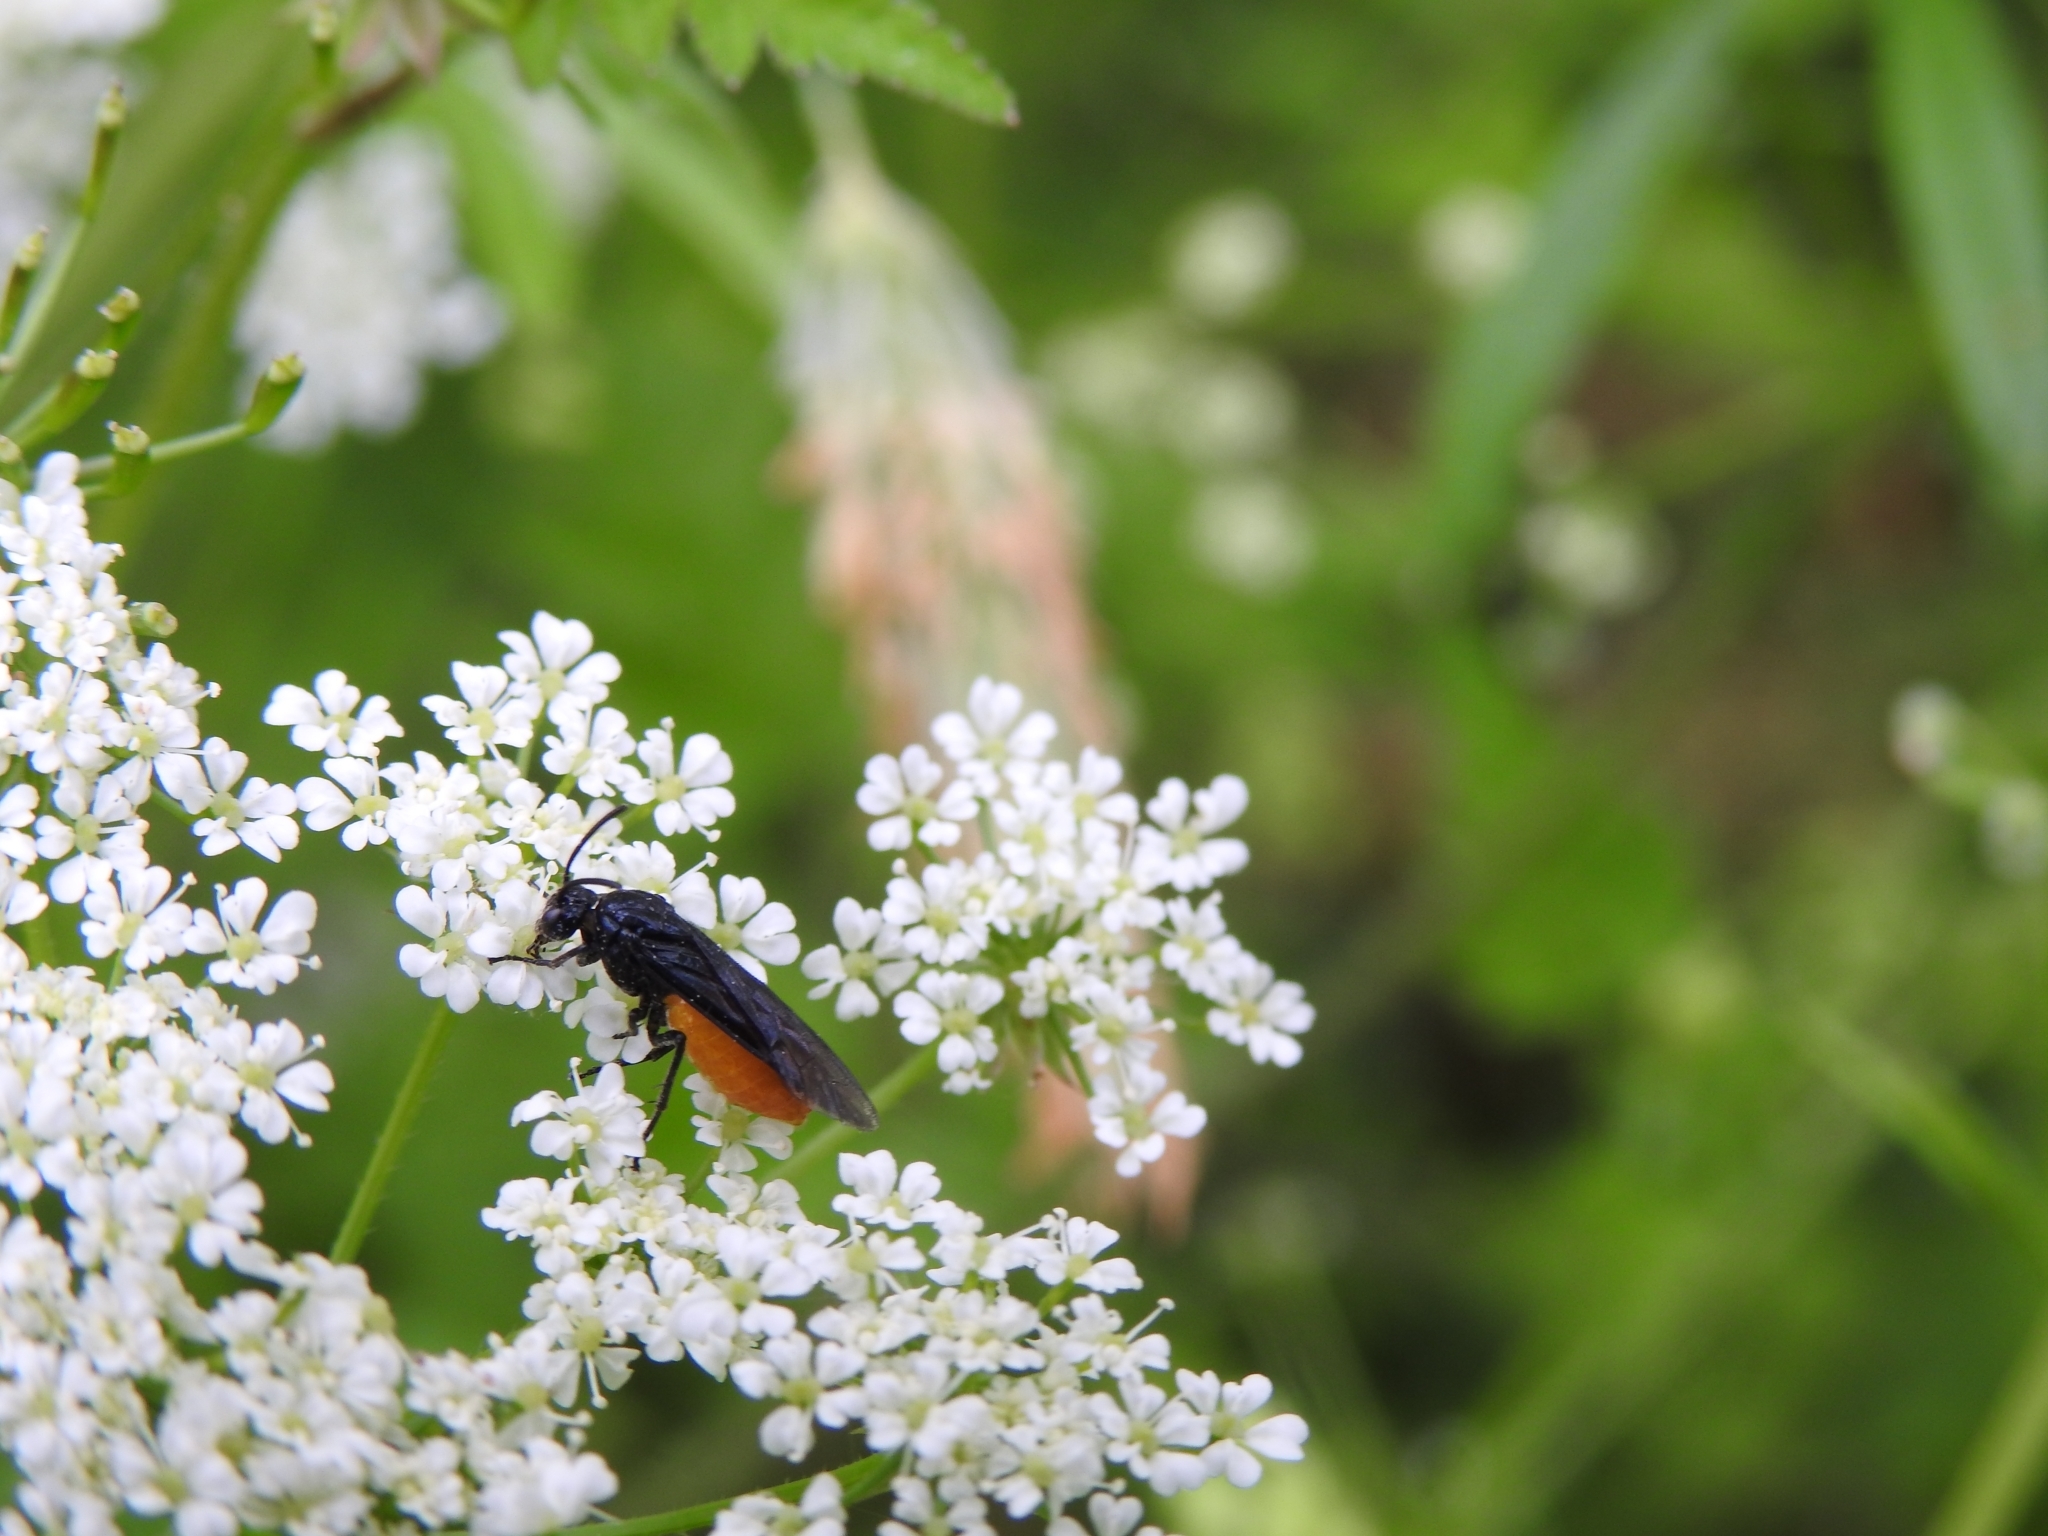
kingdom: Animalia
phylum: Arthropoda
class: Insecta
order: Hymenoptera
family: Argidae
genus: Arge
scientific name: Arge pagana
